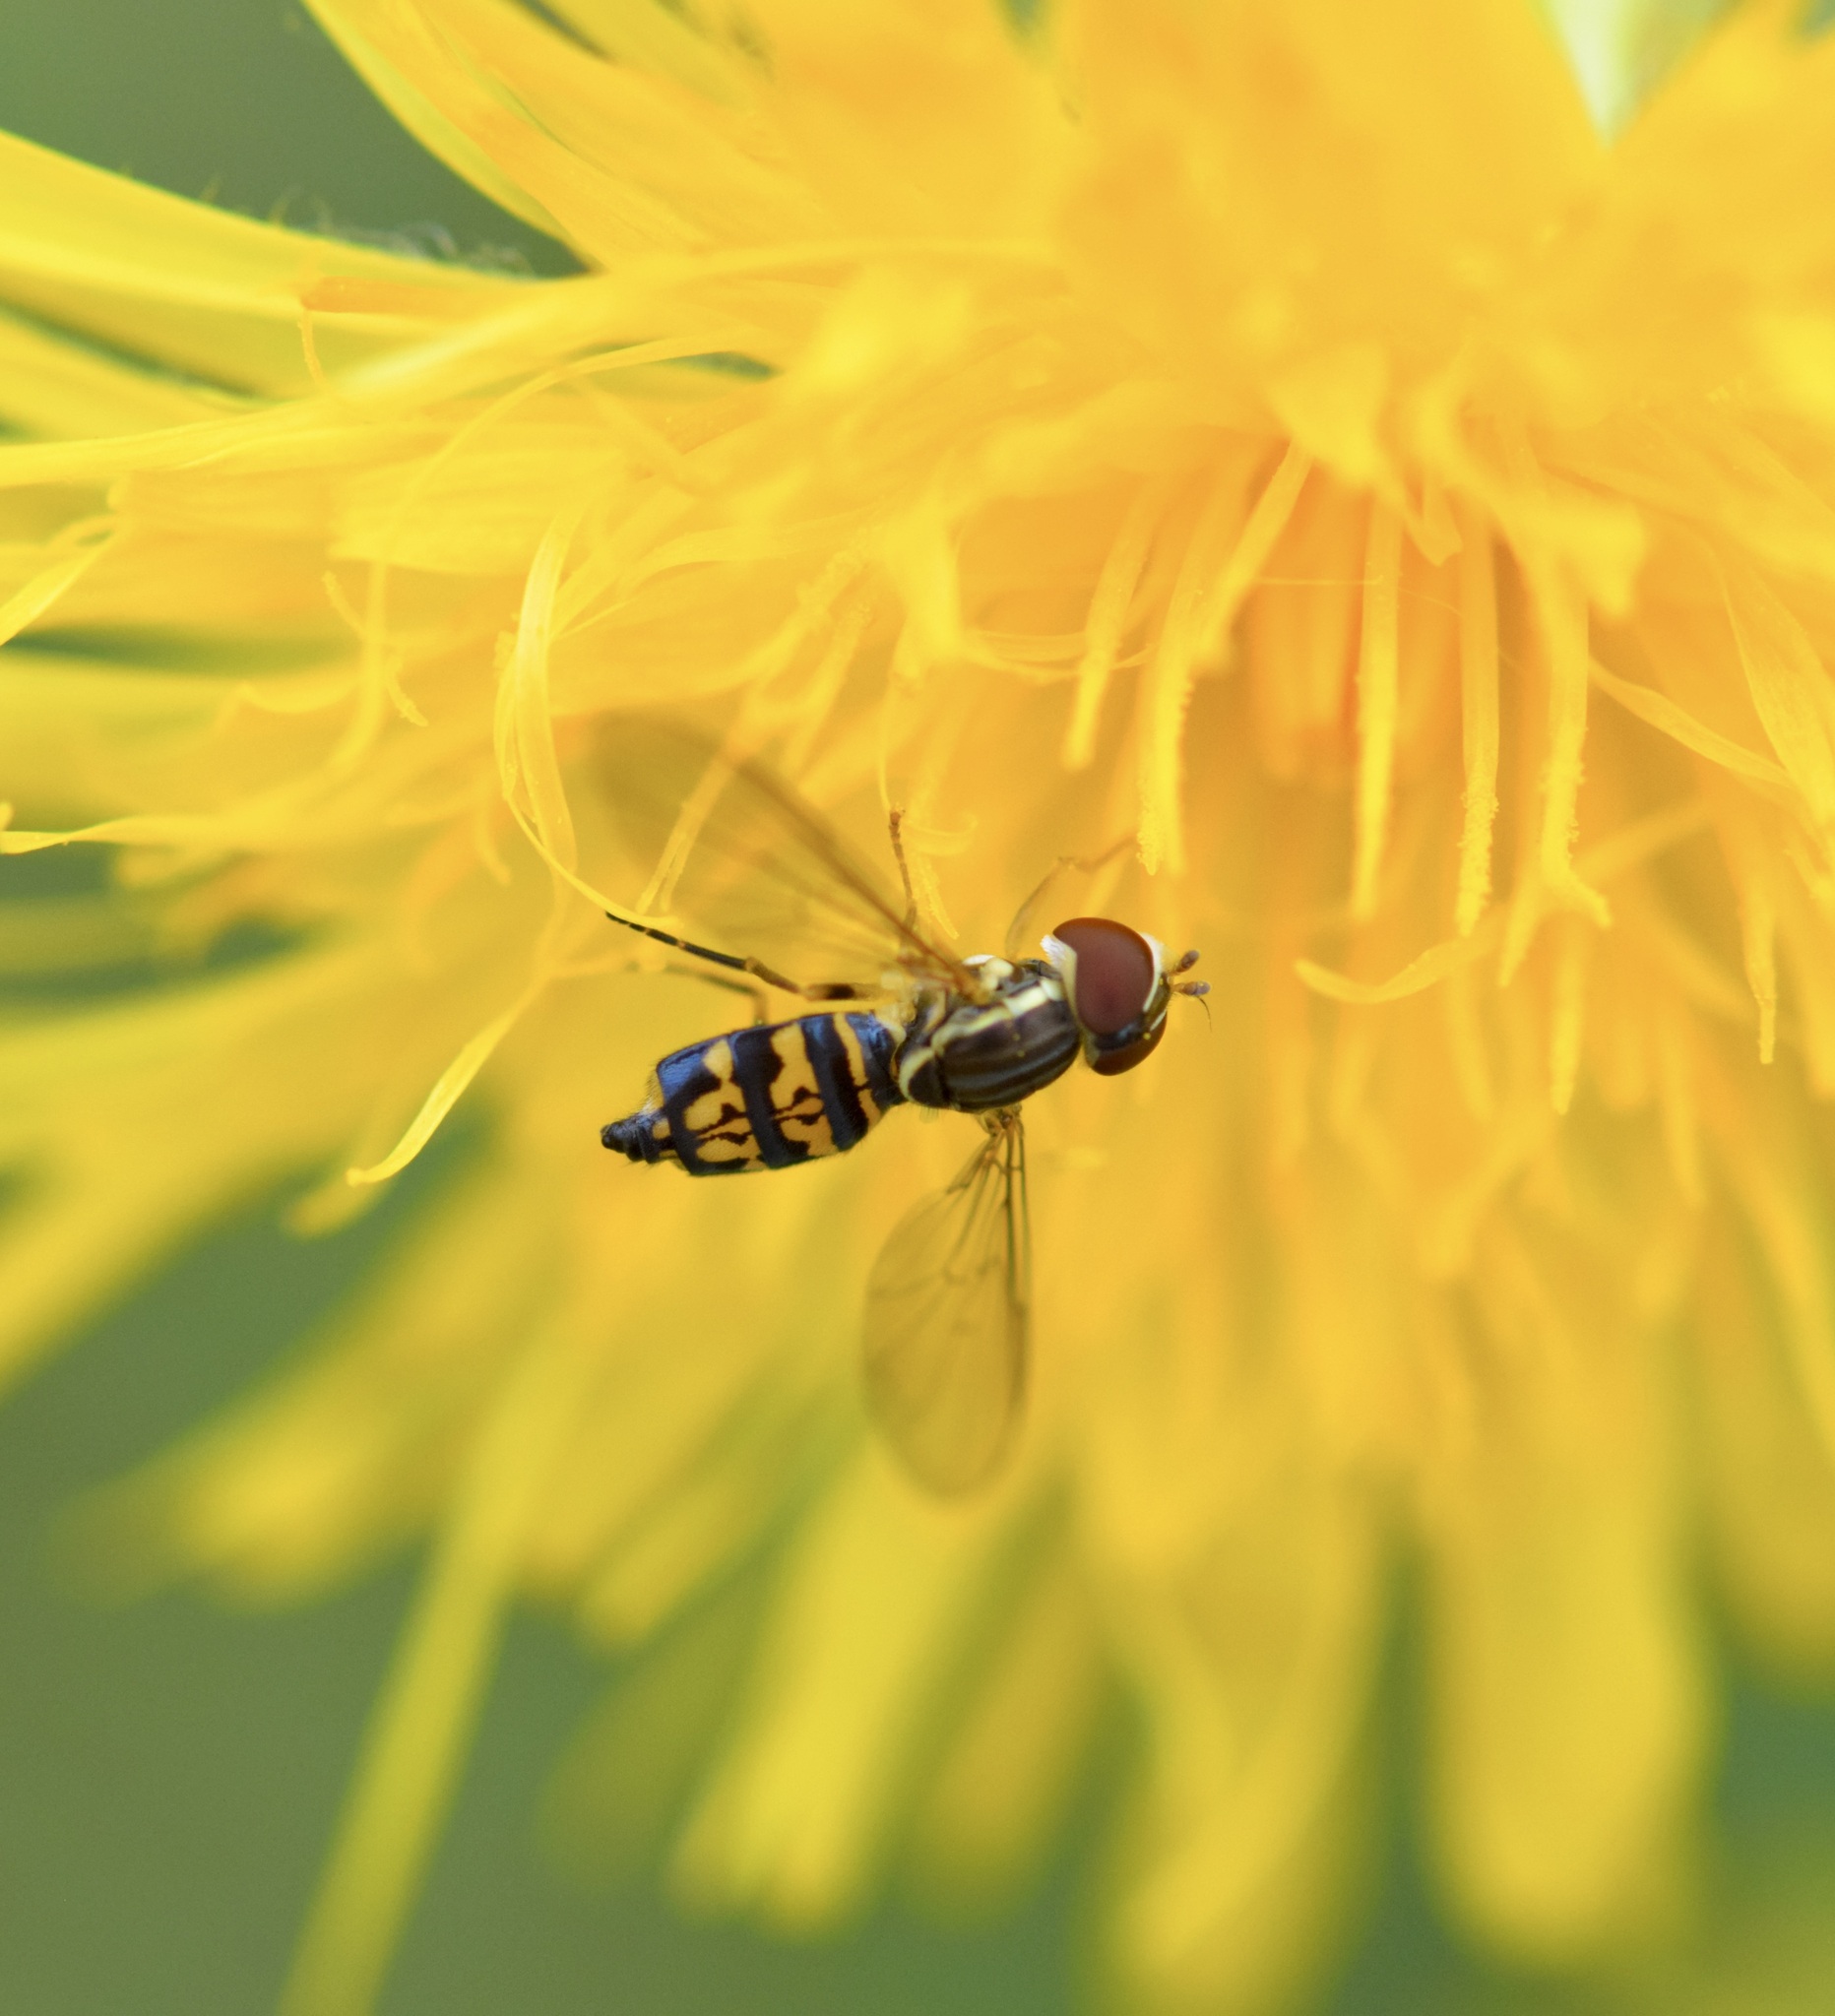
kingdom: Animalia
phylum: Arthropoda
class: Insecta
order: Diptera
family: Syrphidae
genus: Toxomerus
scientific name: Toxomerus geminatus
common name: Eastern calligrapher
